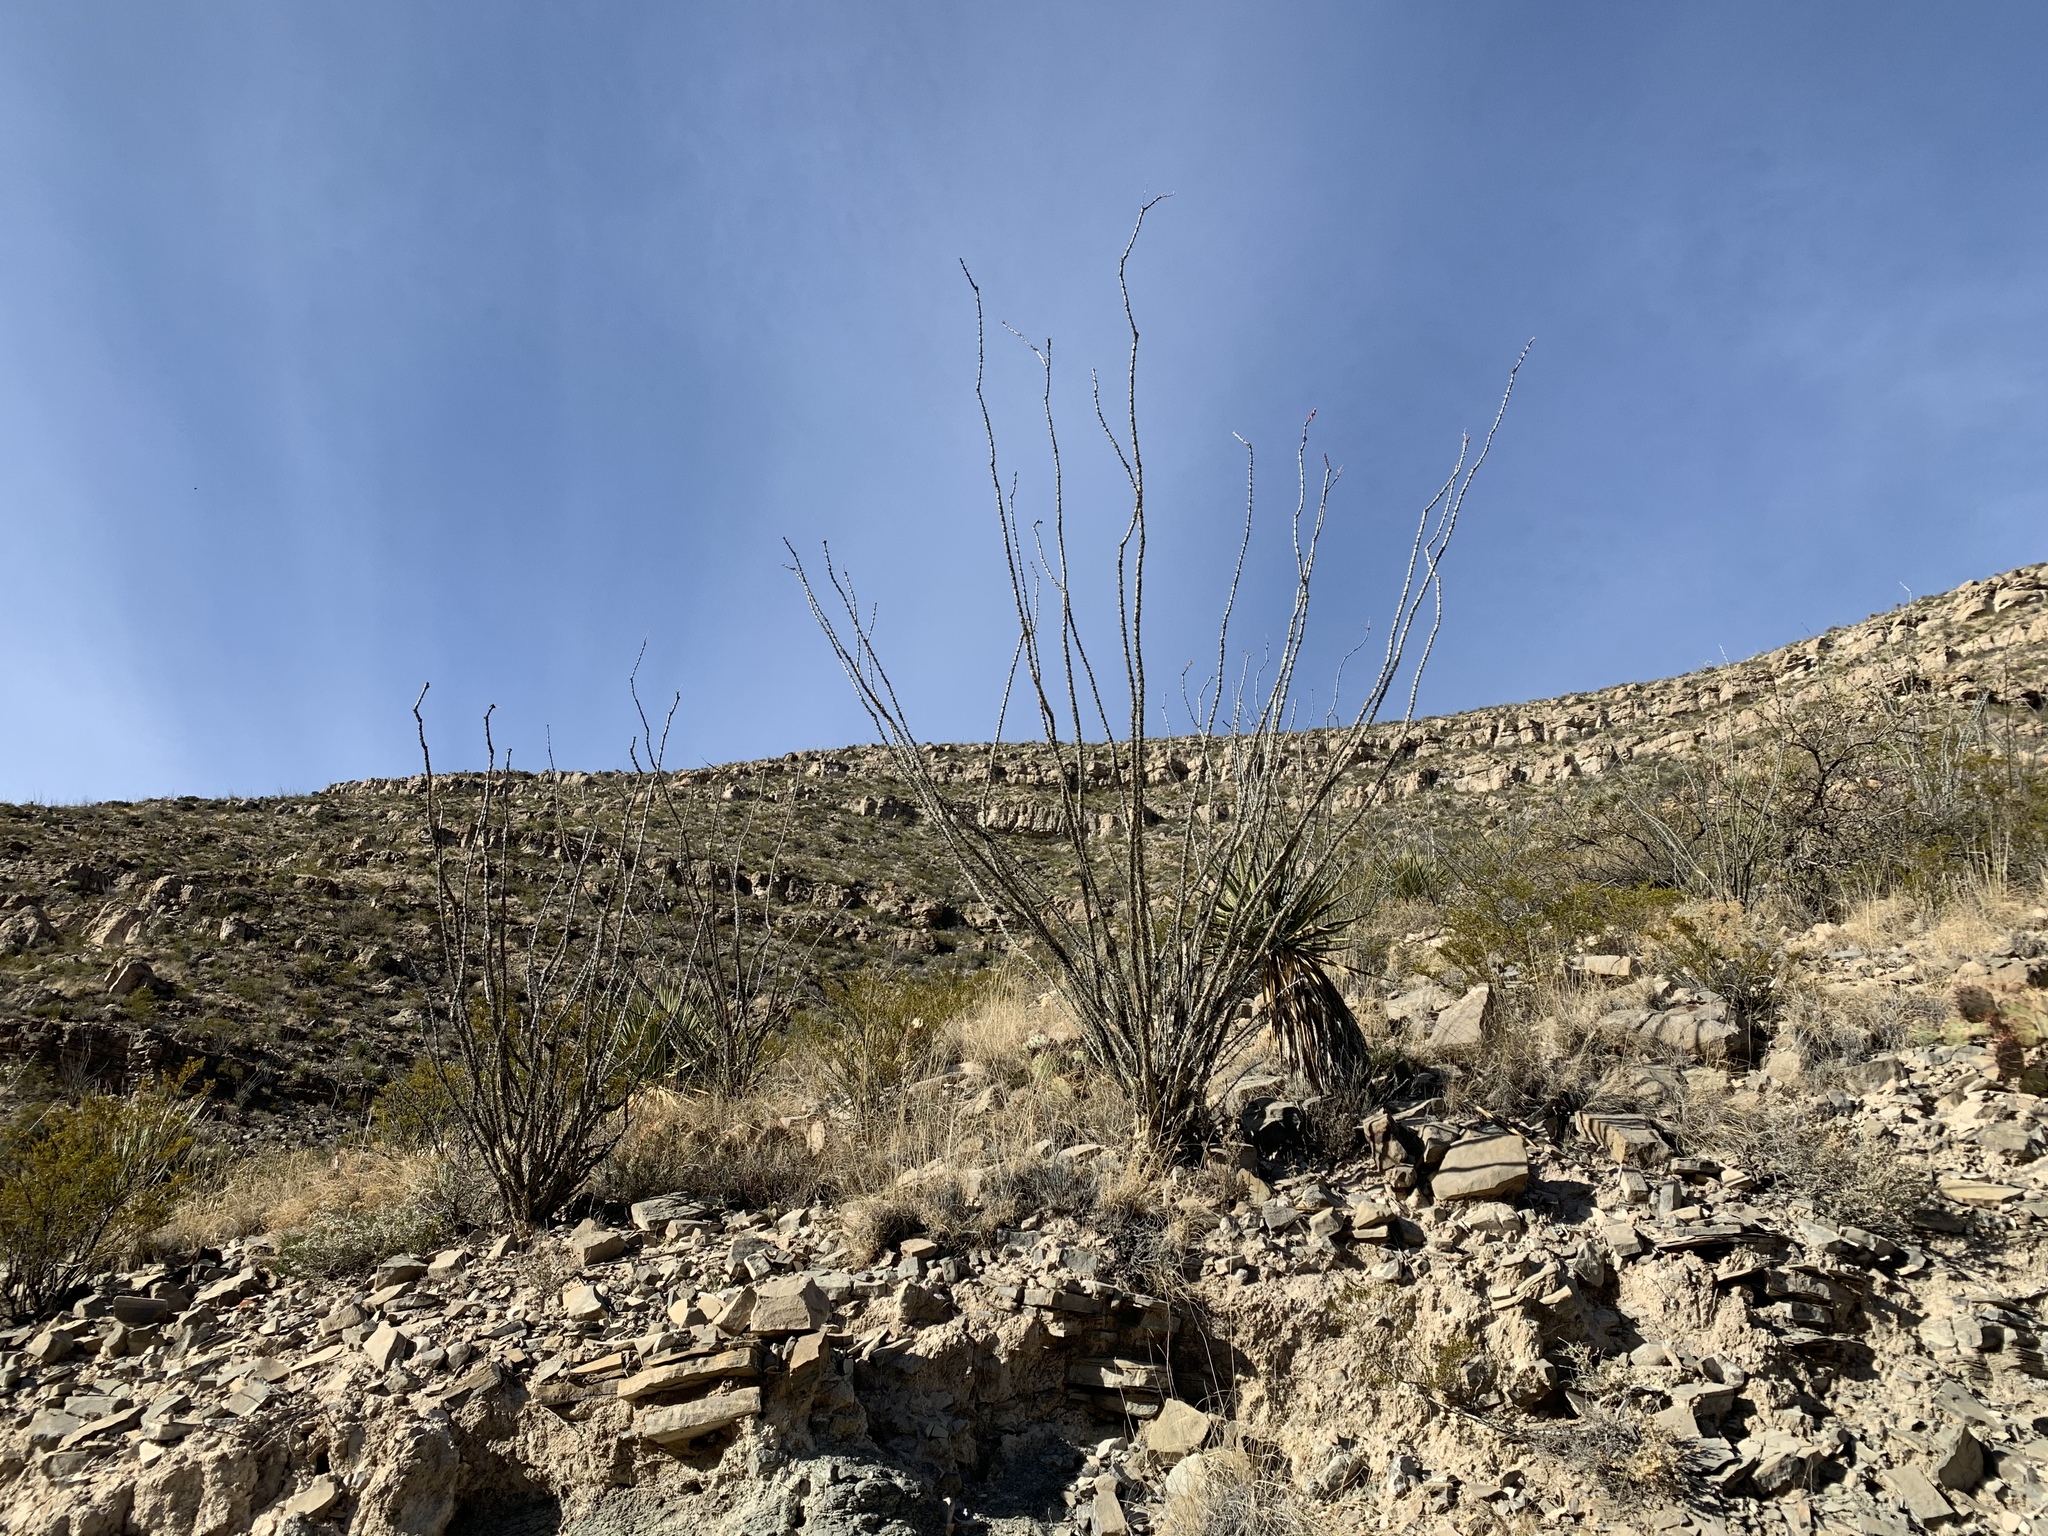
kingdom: Plantae
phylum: Tracheophyta
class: Magnoliopsida
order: Ericales
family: Fouquieriaceae
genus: Fouquieria
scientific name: Fouquieria splendens
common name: Vine-cactus
